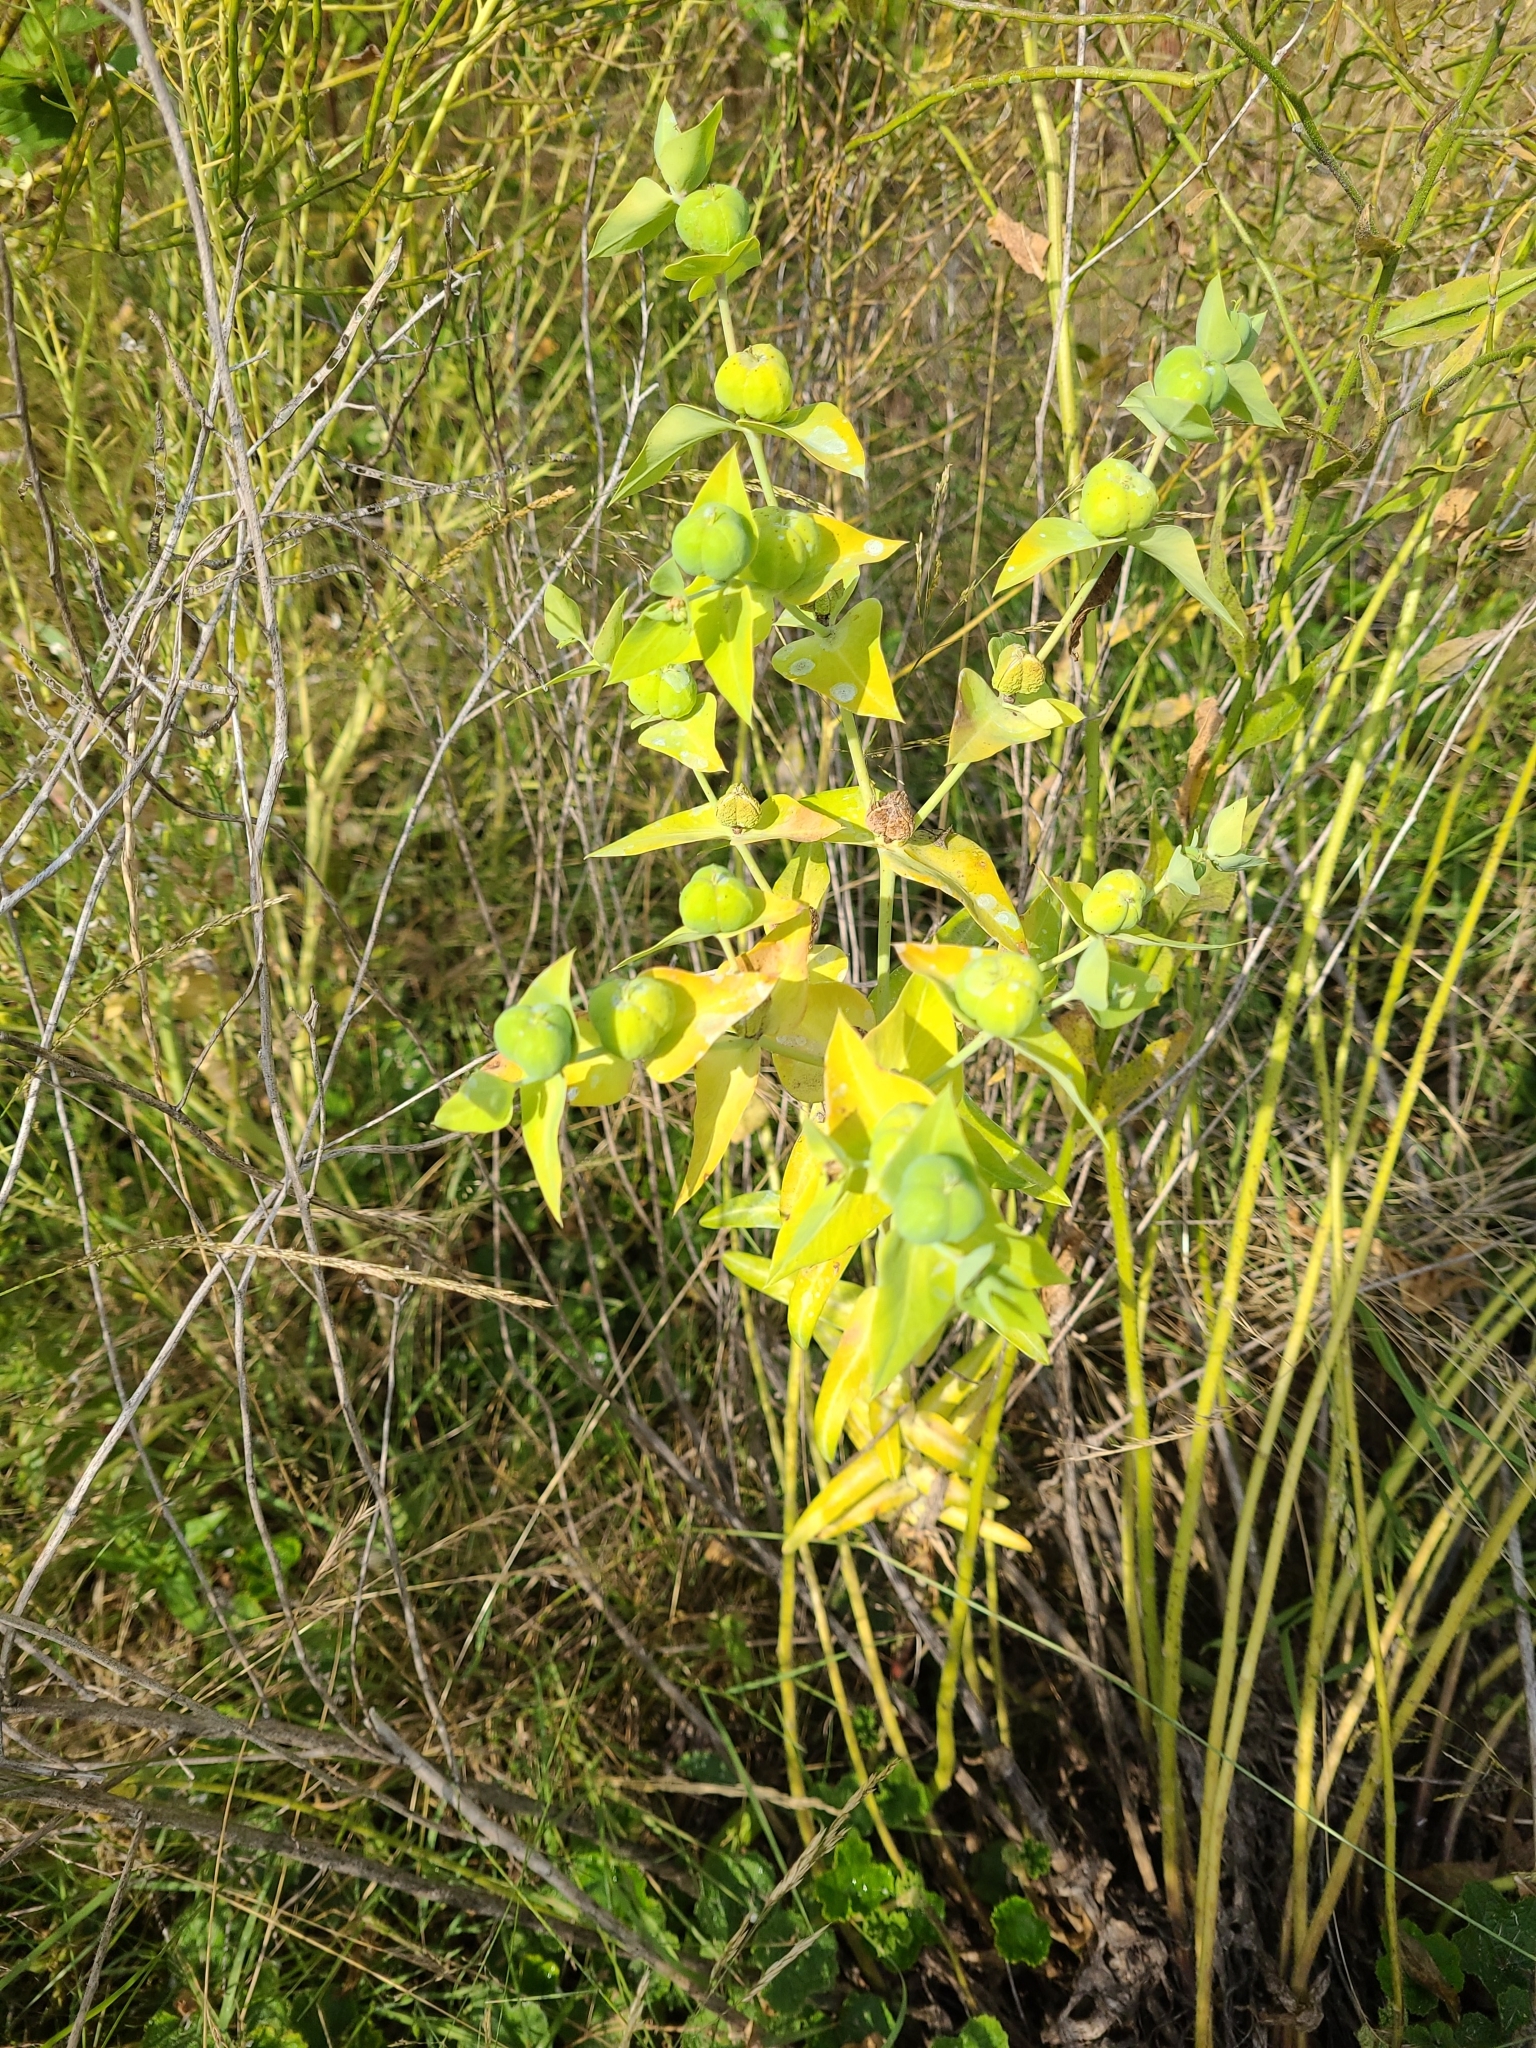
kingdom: Plantae
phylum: Tracheophyta
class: Magnoliopsida
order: Malpighiales
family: Euphorbiaceae
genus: Euphorbia
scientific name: Euphorbia lathyris
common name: Caper spurge
